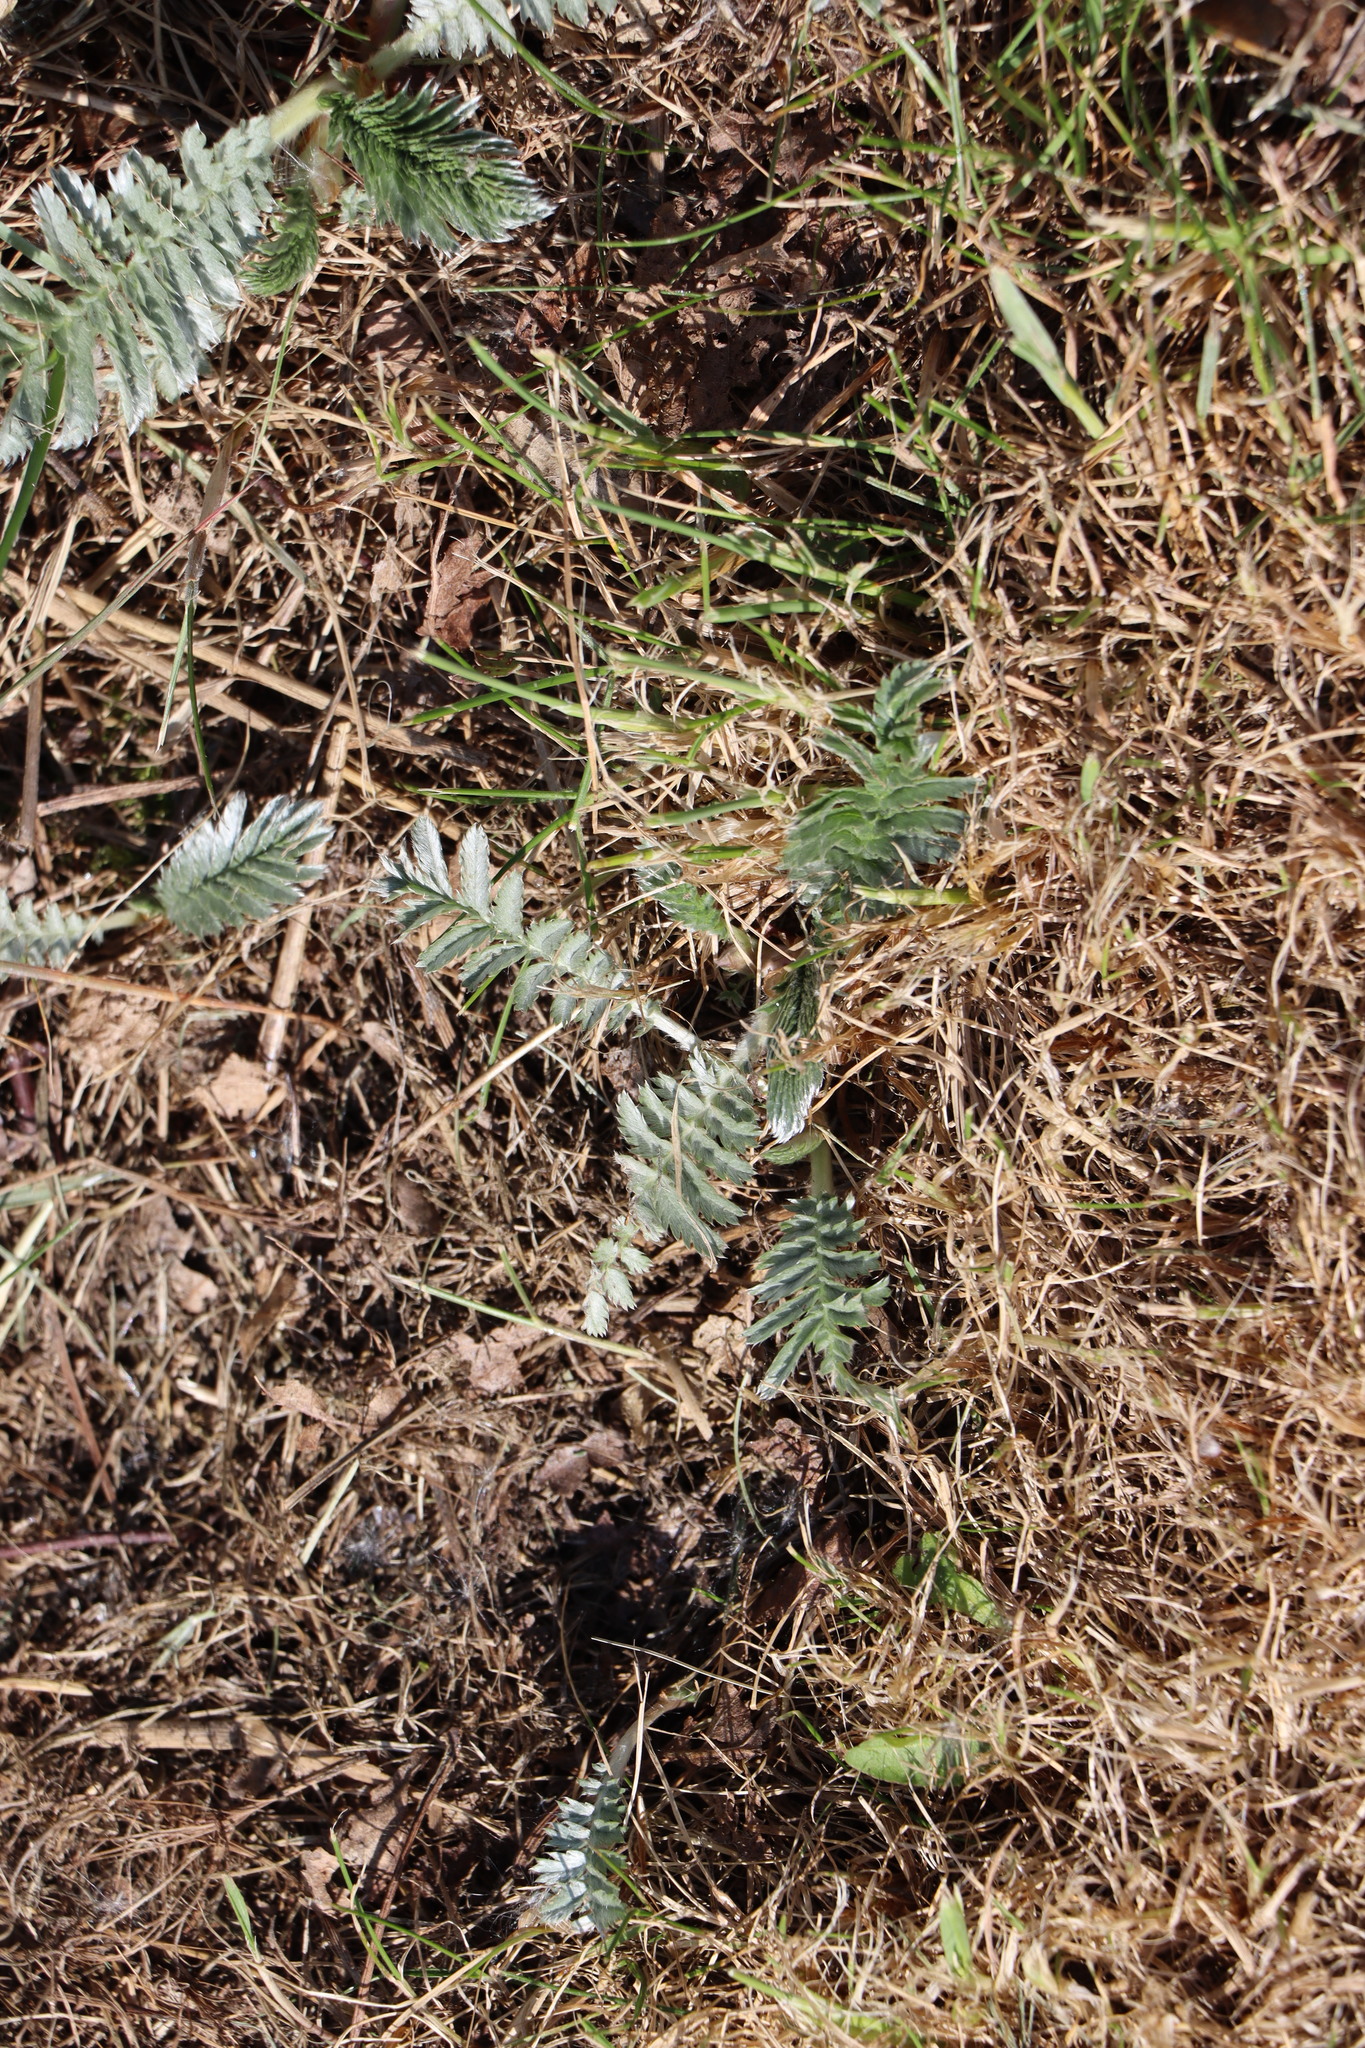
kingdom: Plantae
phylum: Tracheophyta
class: Magnoliopsida
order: Rosales
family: Rosaceae
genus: Argentina
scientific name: Argentina anserina
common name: Common silverweed
